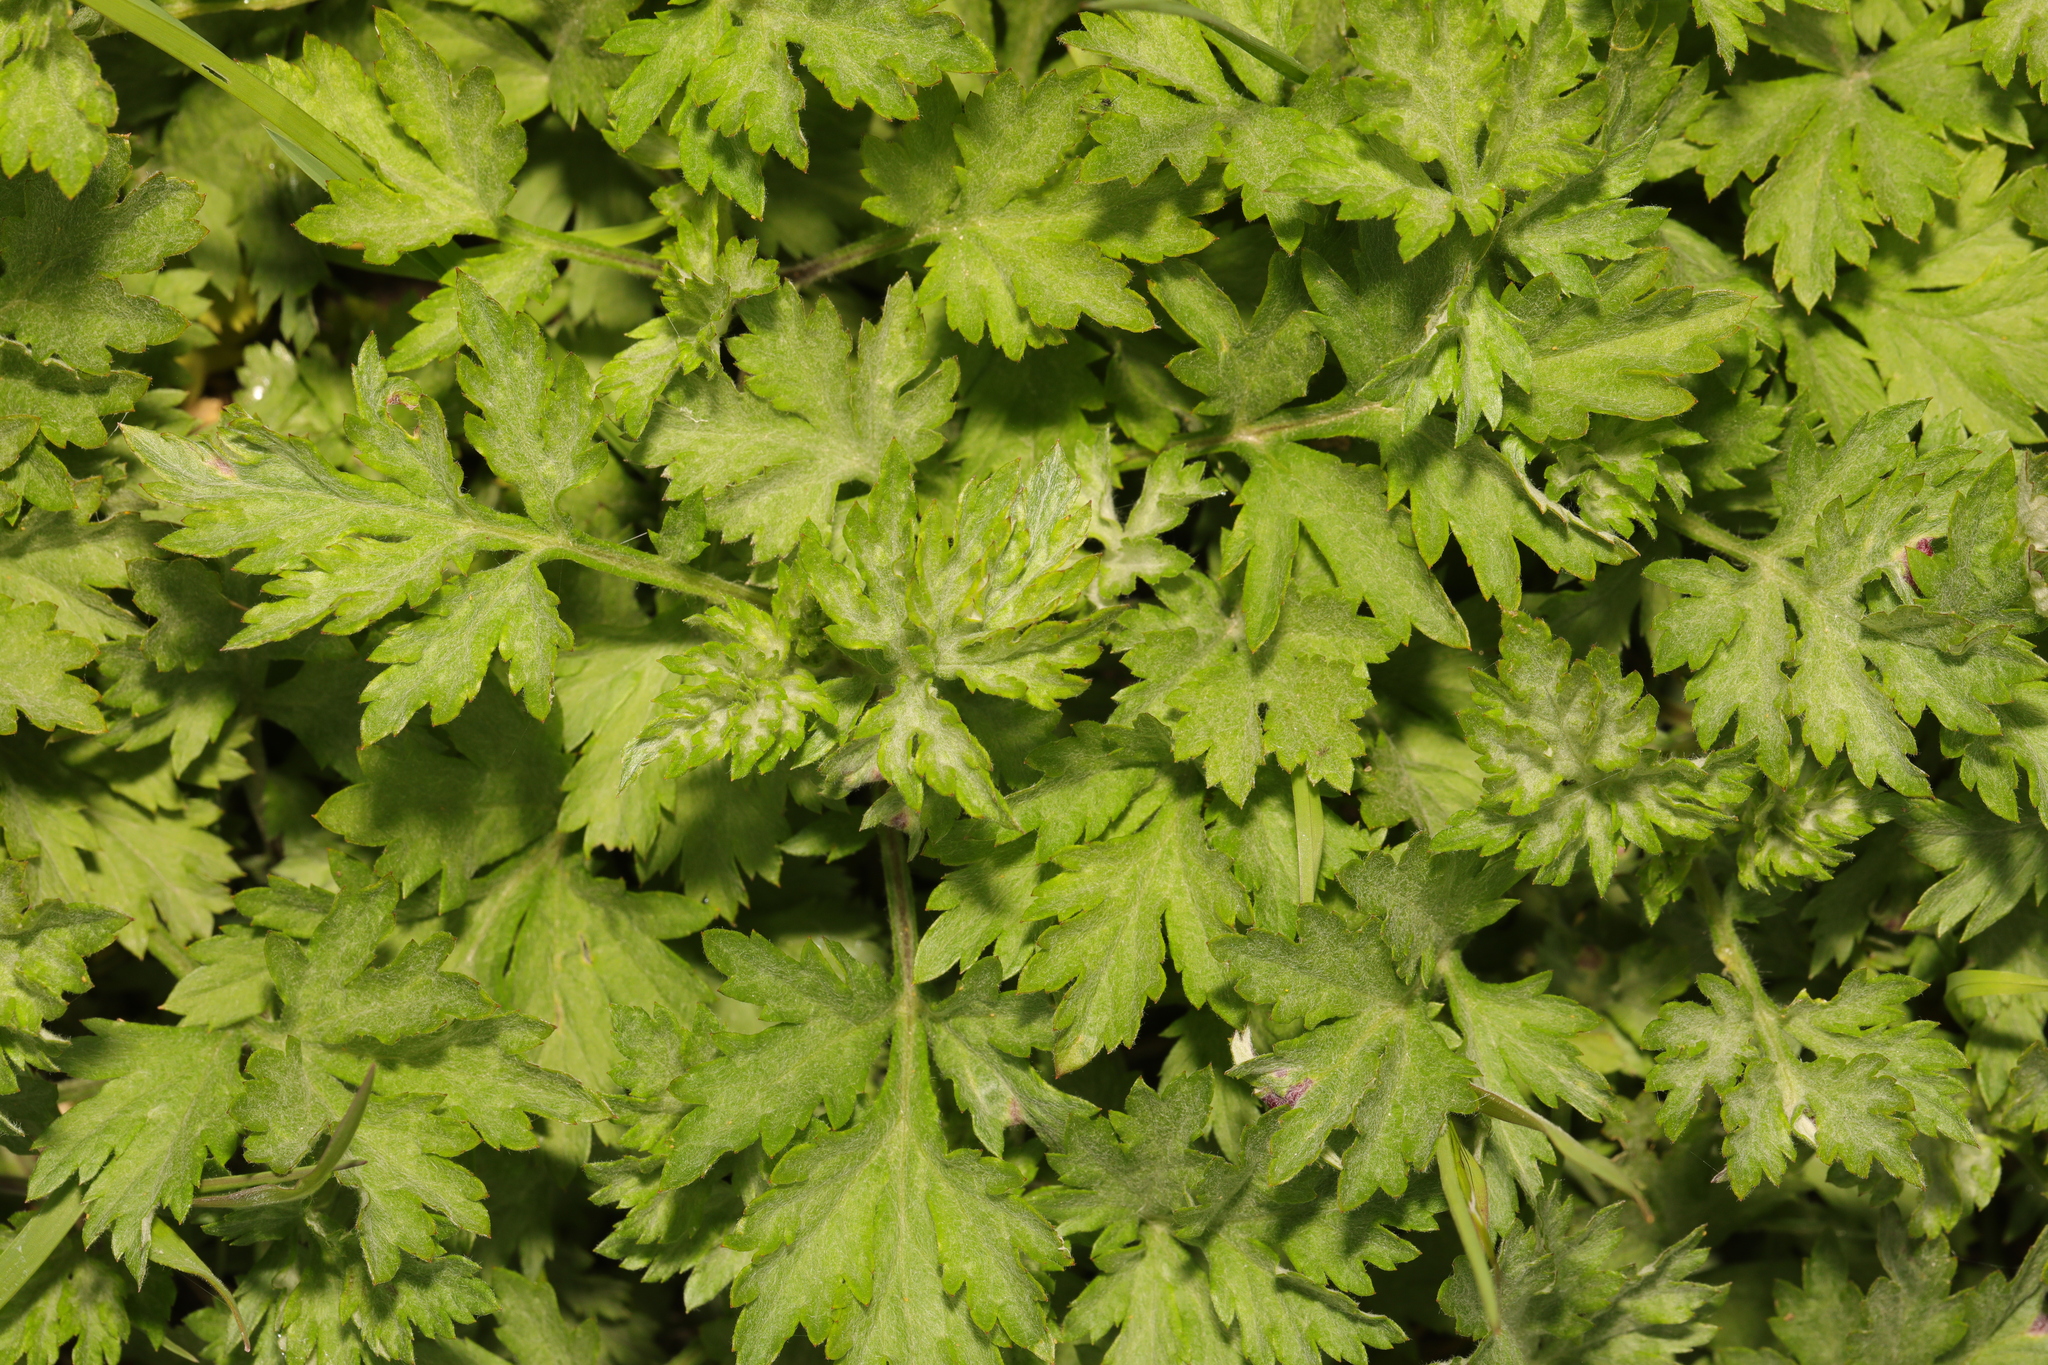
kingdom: Plantae
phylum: Tracheophyta
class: Magnoliopsida
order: Asterales
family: Asteraceae
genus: Artemisia
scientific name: Artemisia vulgaris
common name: Mugwort
